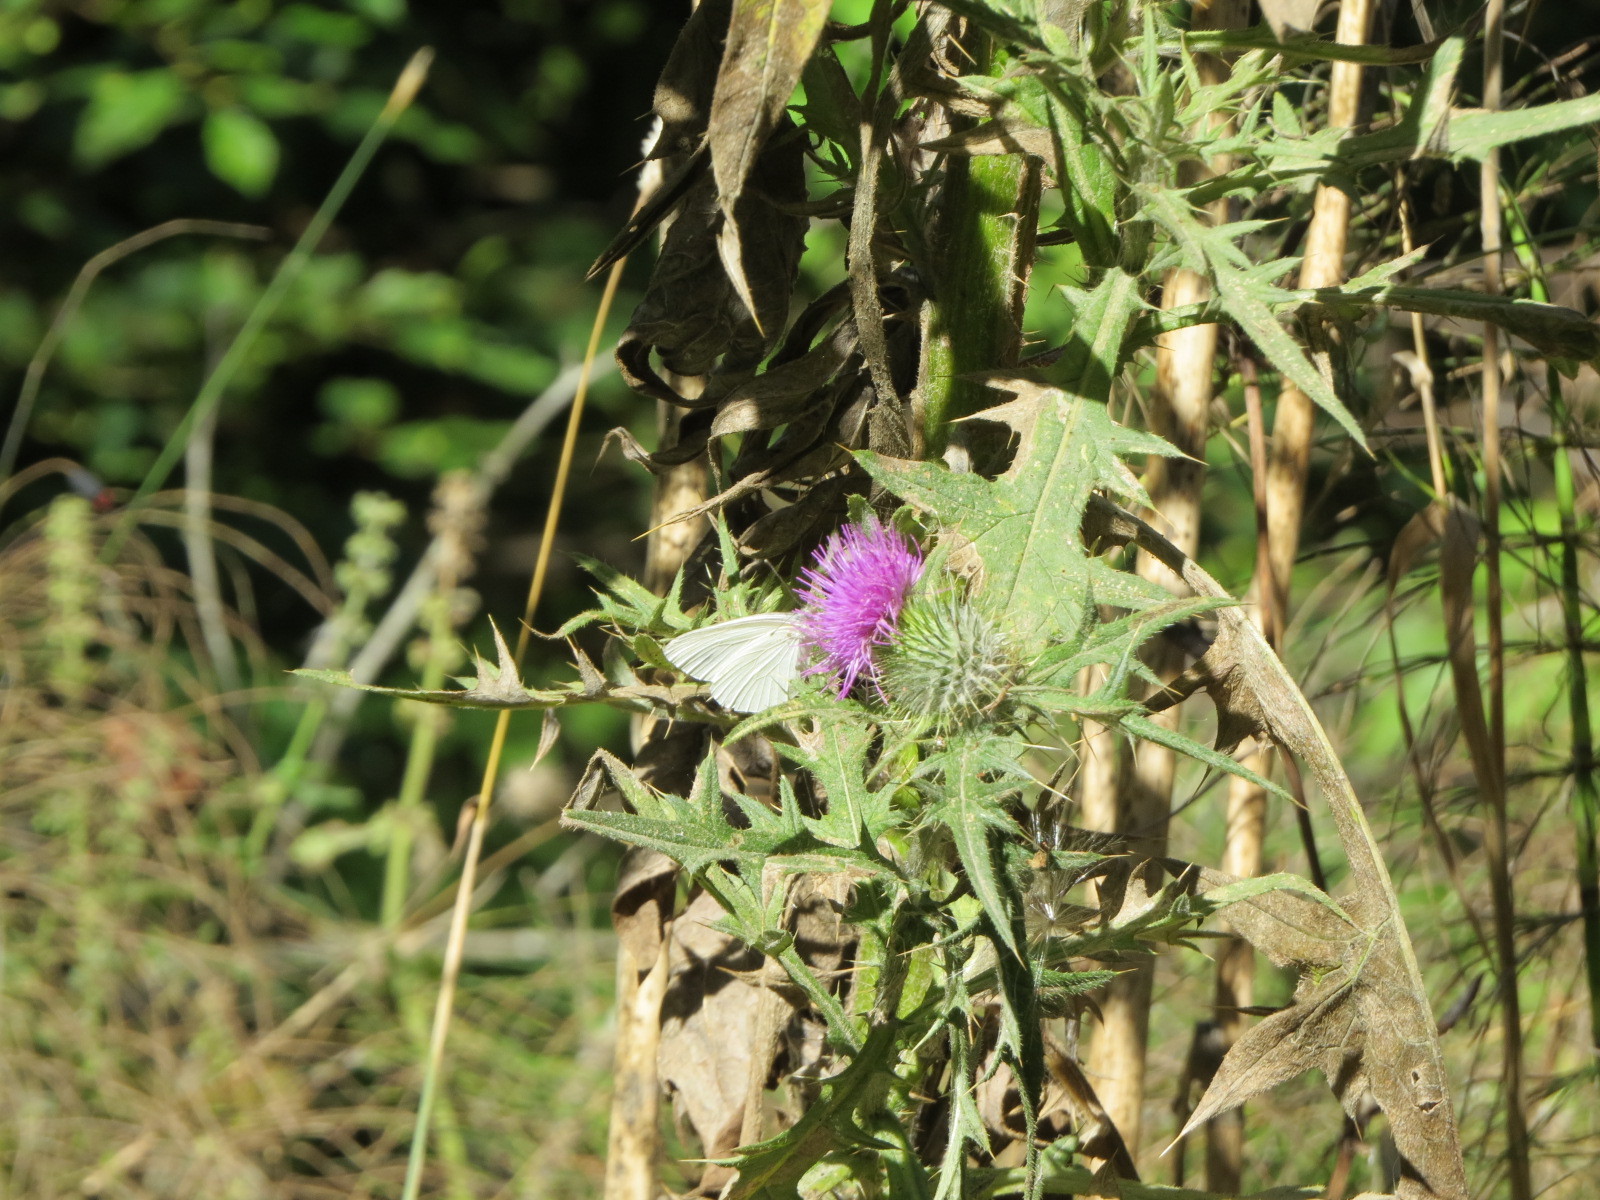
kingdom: Animalia
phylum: Arthropoda
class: Insecta
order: Lepidoptera
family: Pieridae
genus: Pieris
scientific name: Pieris marginalis
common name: Margined white
